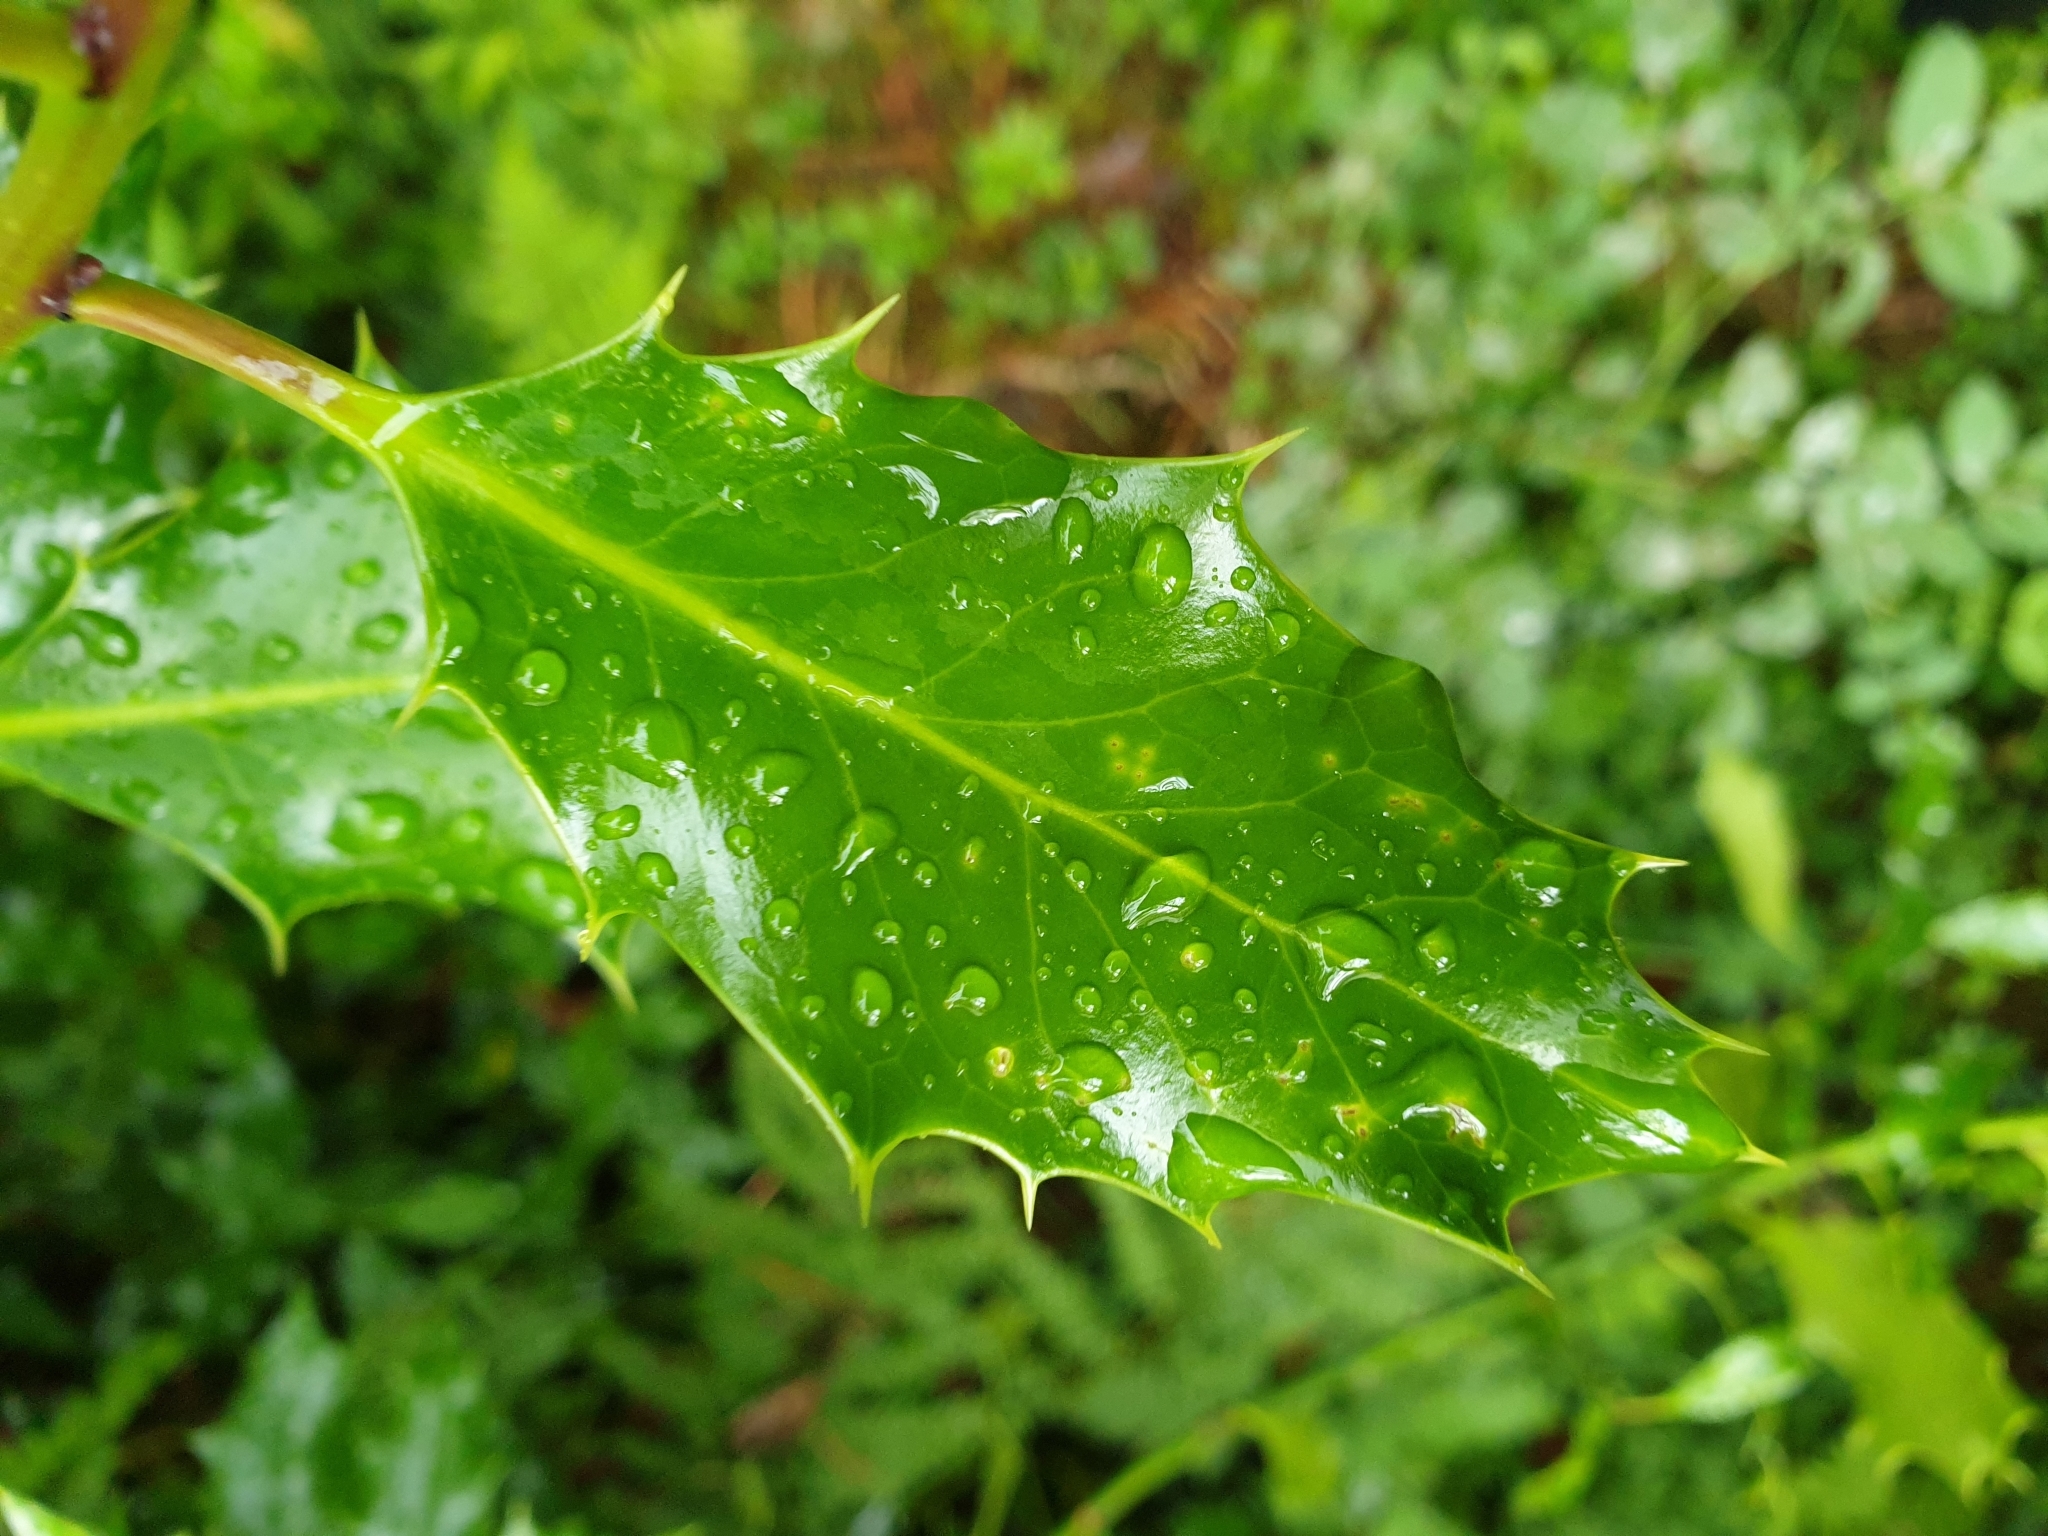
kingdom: Plantae
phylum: Tracheophyta
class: Magnoliopsida
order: Aquifoliales
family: Aquifoliaceae
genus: Ilex
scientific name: Ilex aquifolium
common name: English holly
